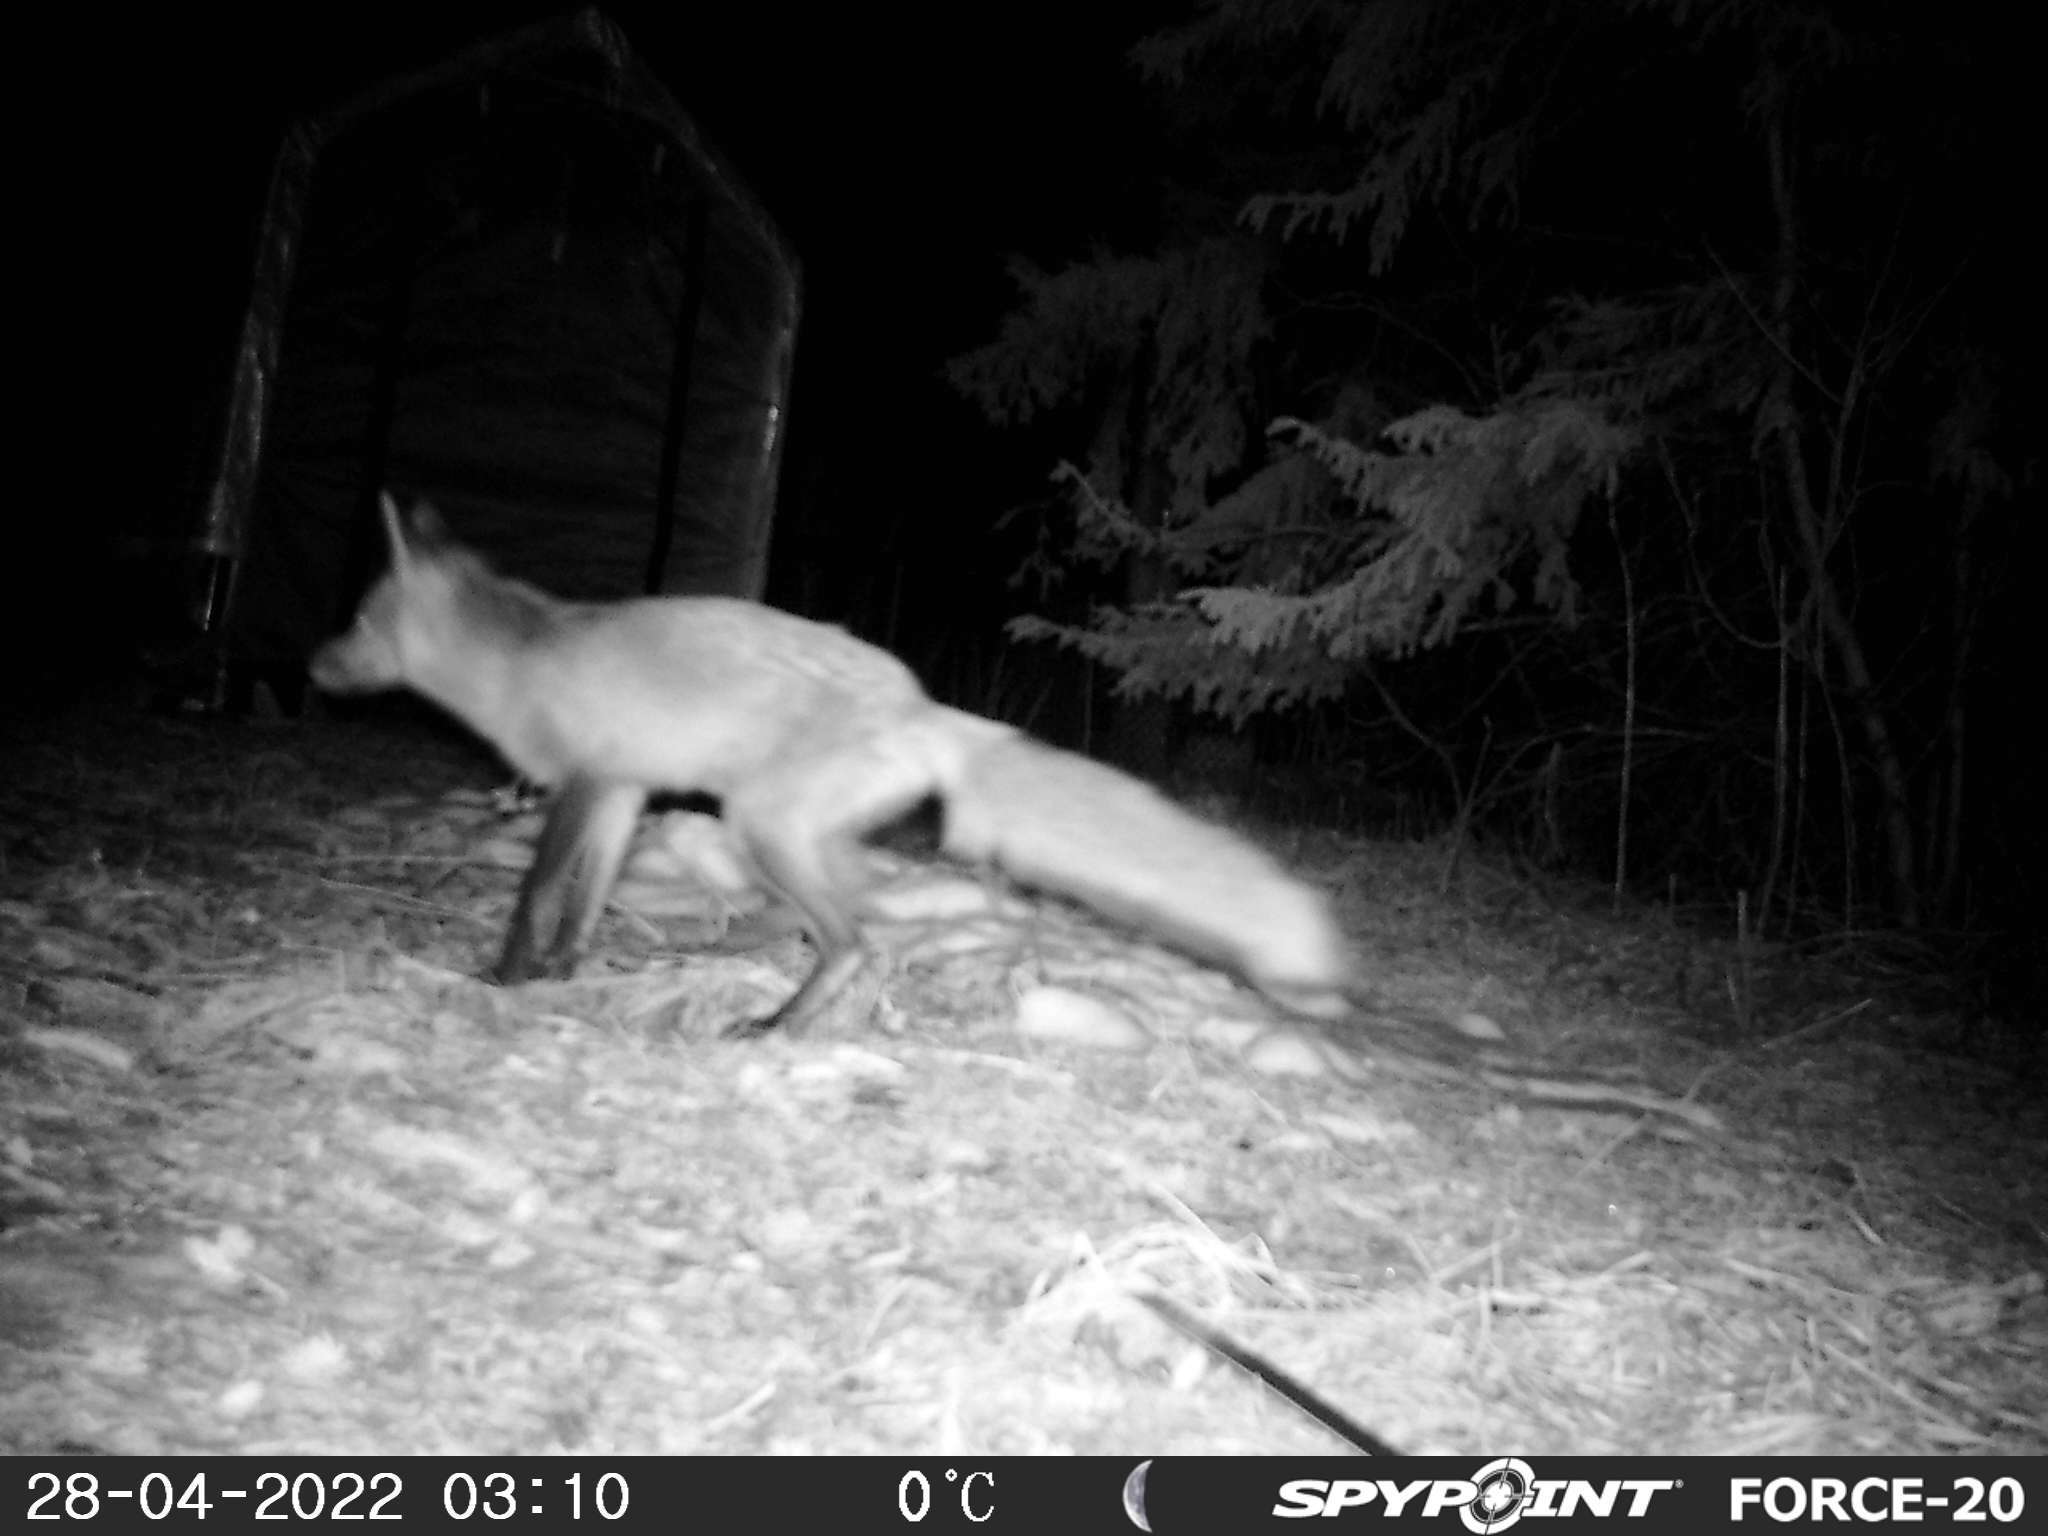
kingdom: Animalia
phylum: Chordata
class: Mammalia
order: Carnivora
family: Canidae
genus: Vulpes
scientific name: Vulpes vulpes
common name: Red fox
